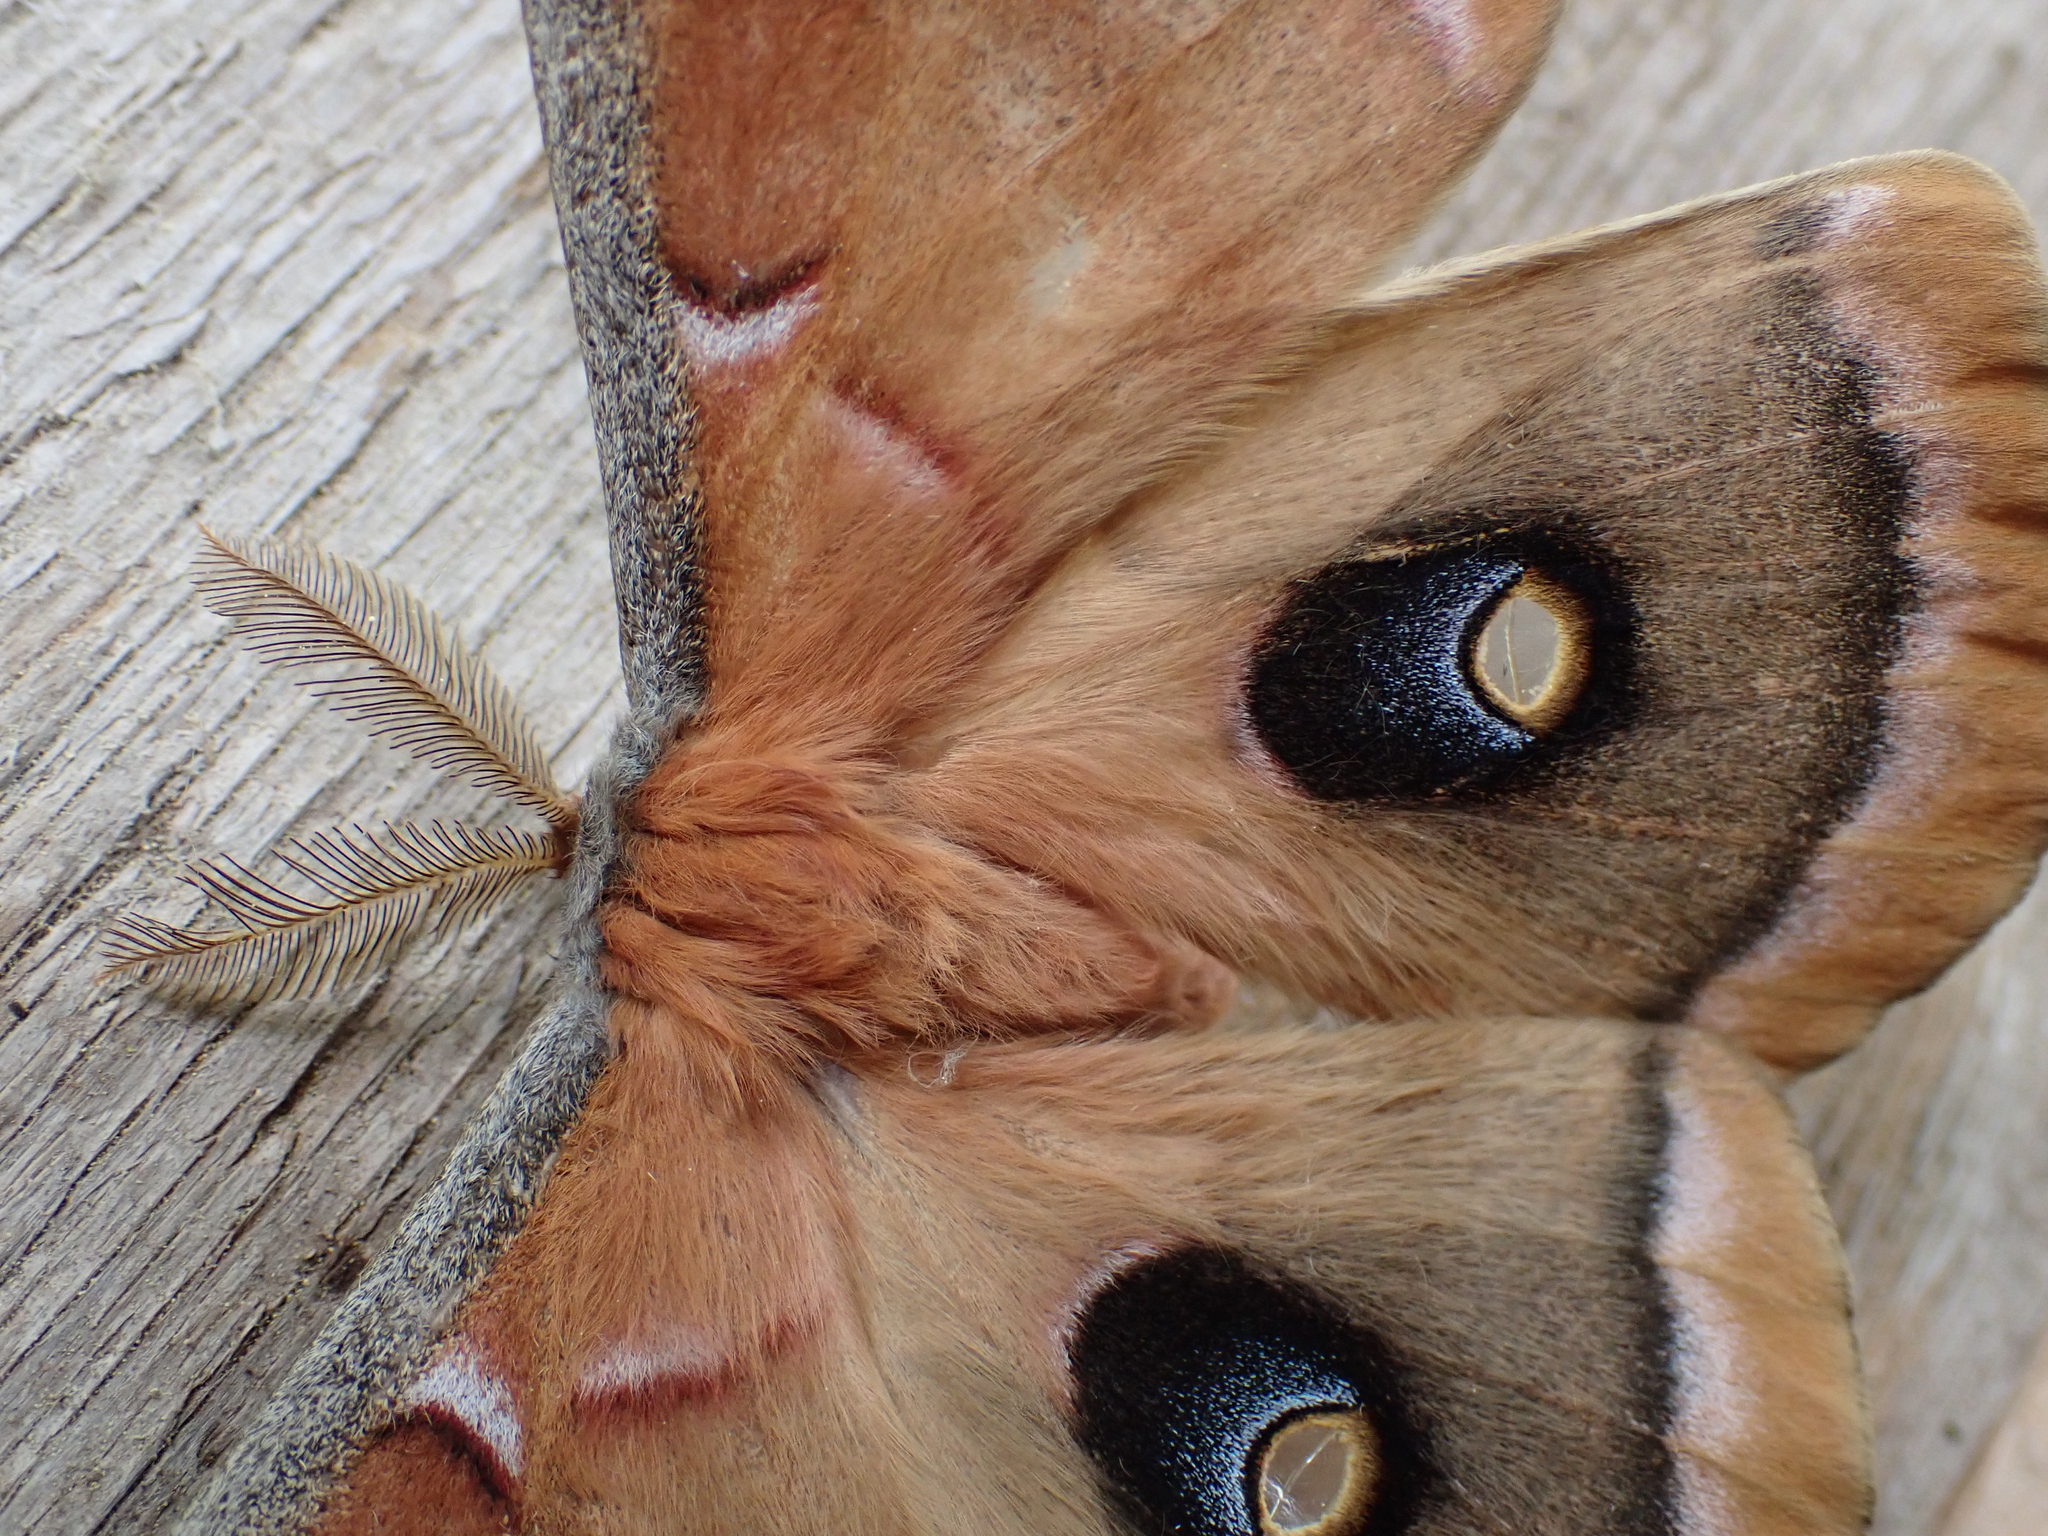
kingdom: Animalia
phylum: Arthropoda
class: Insecta
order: Lepidoptera
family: Saturniidae
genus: Antheraea
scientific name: Antheraea polyphemus
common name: Polyphemus moth
